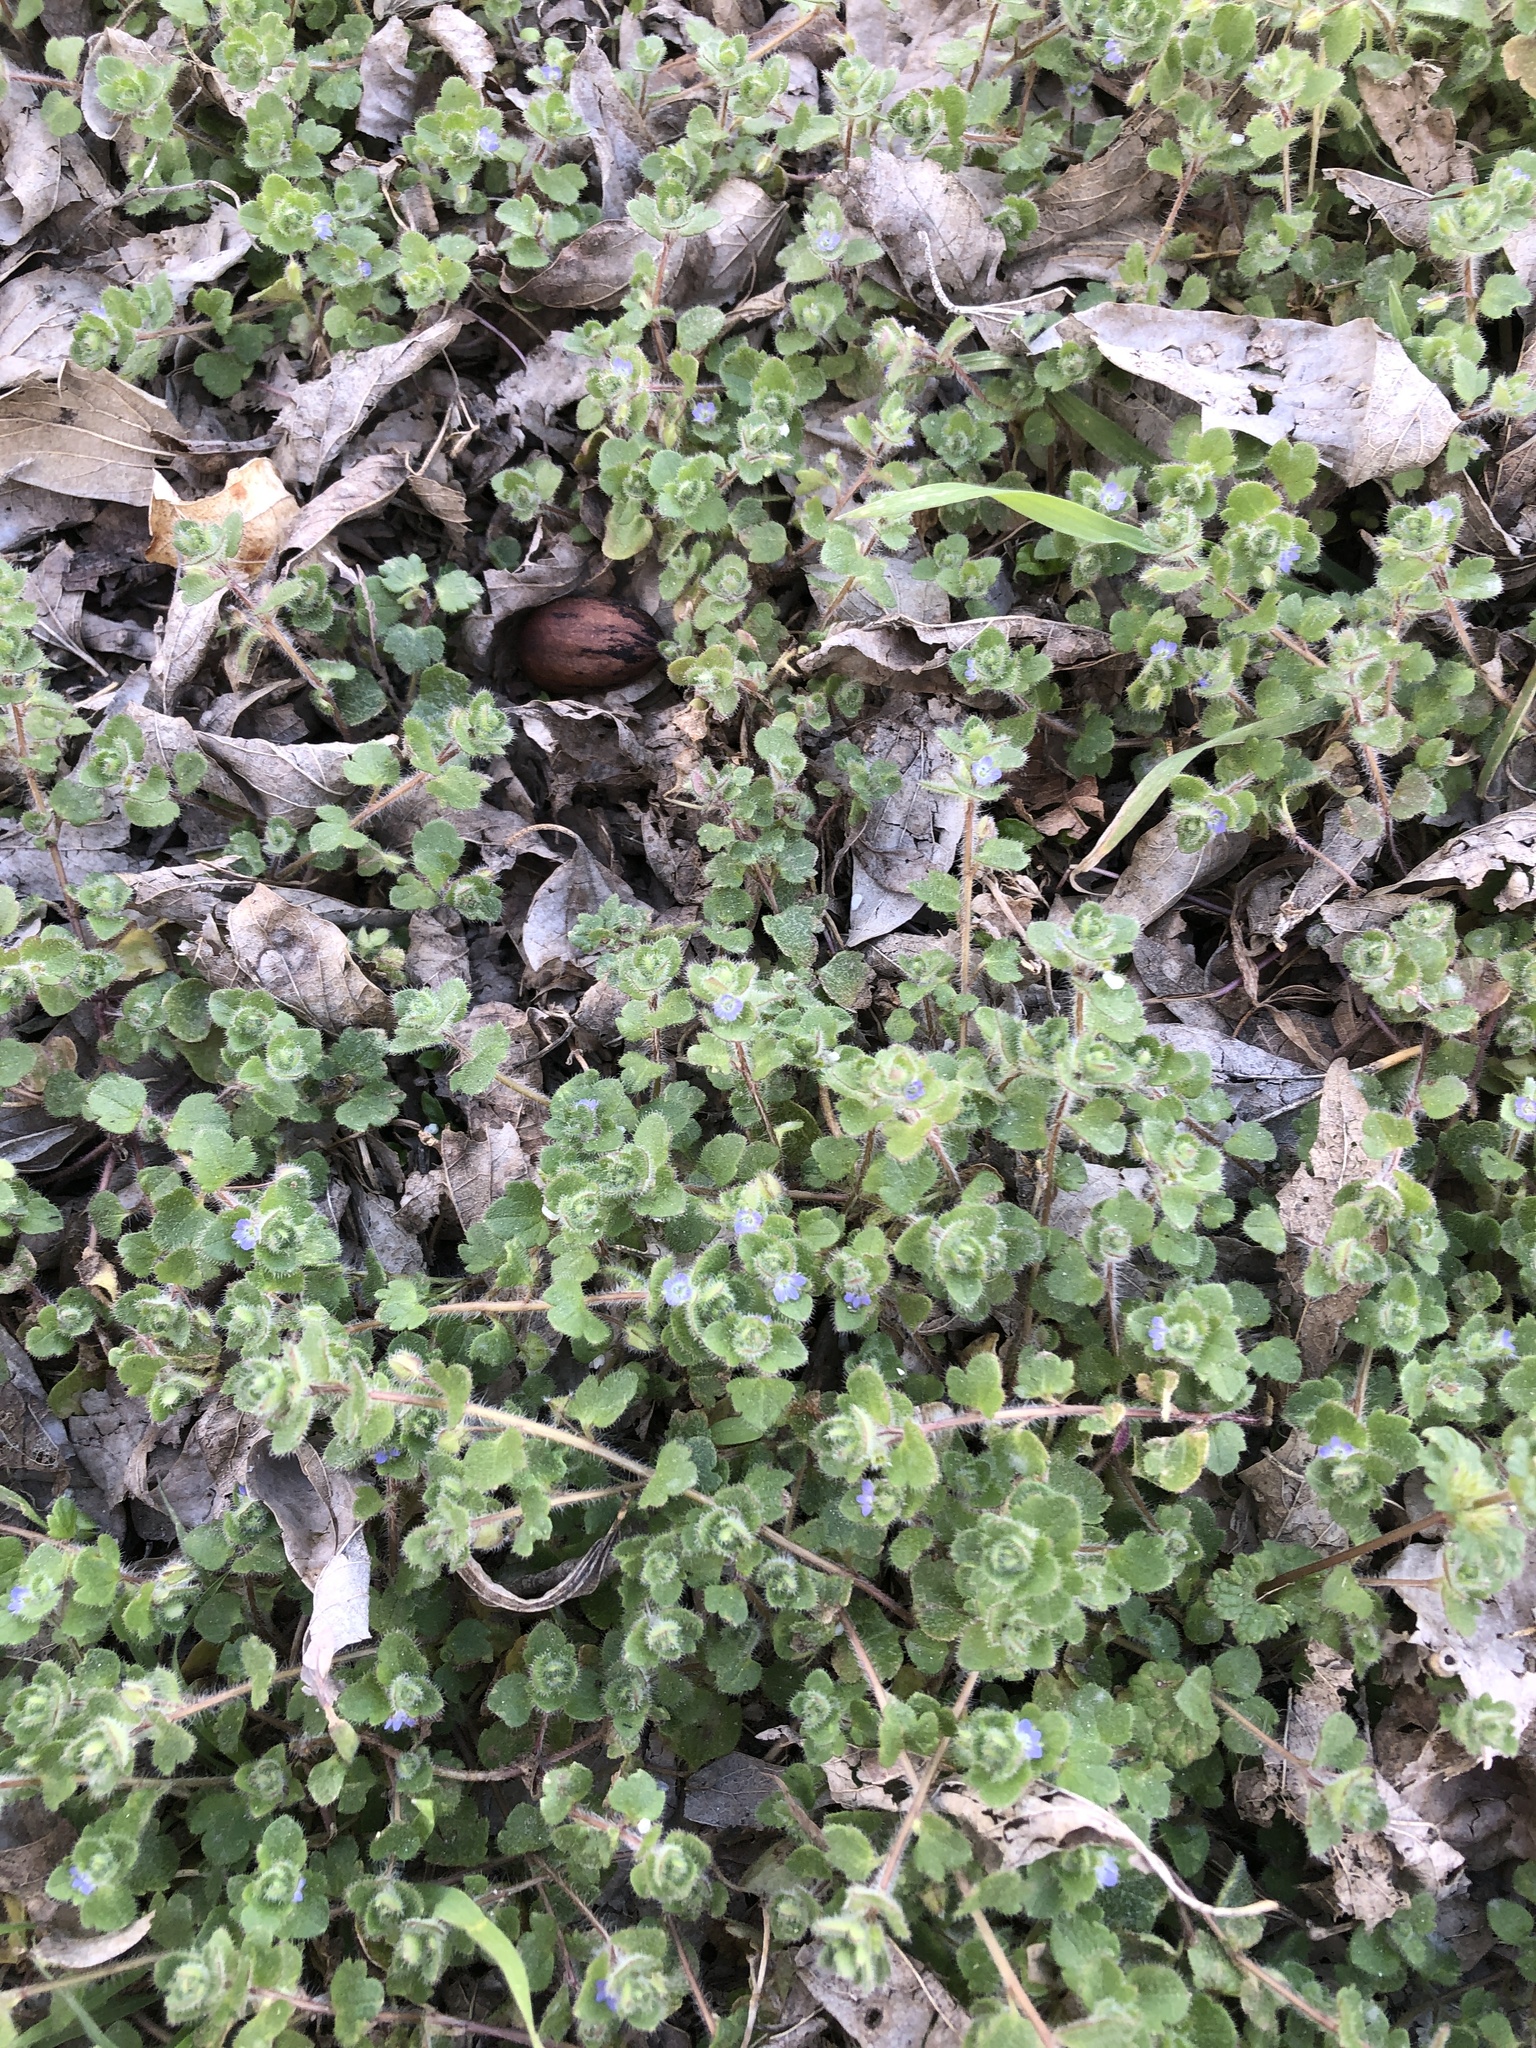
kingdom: Plantae
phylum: Tracheophyta
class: Magnoliopsida
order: Lamiales
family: Plantaginaceae
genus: Veronica
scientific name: Veronica hederifolia
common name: Ivy-leaved speedwell
